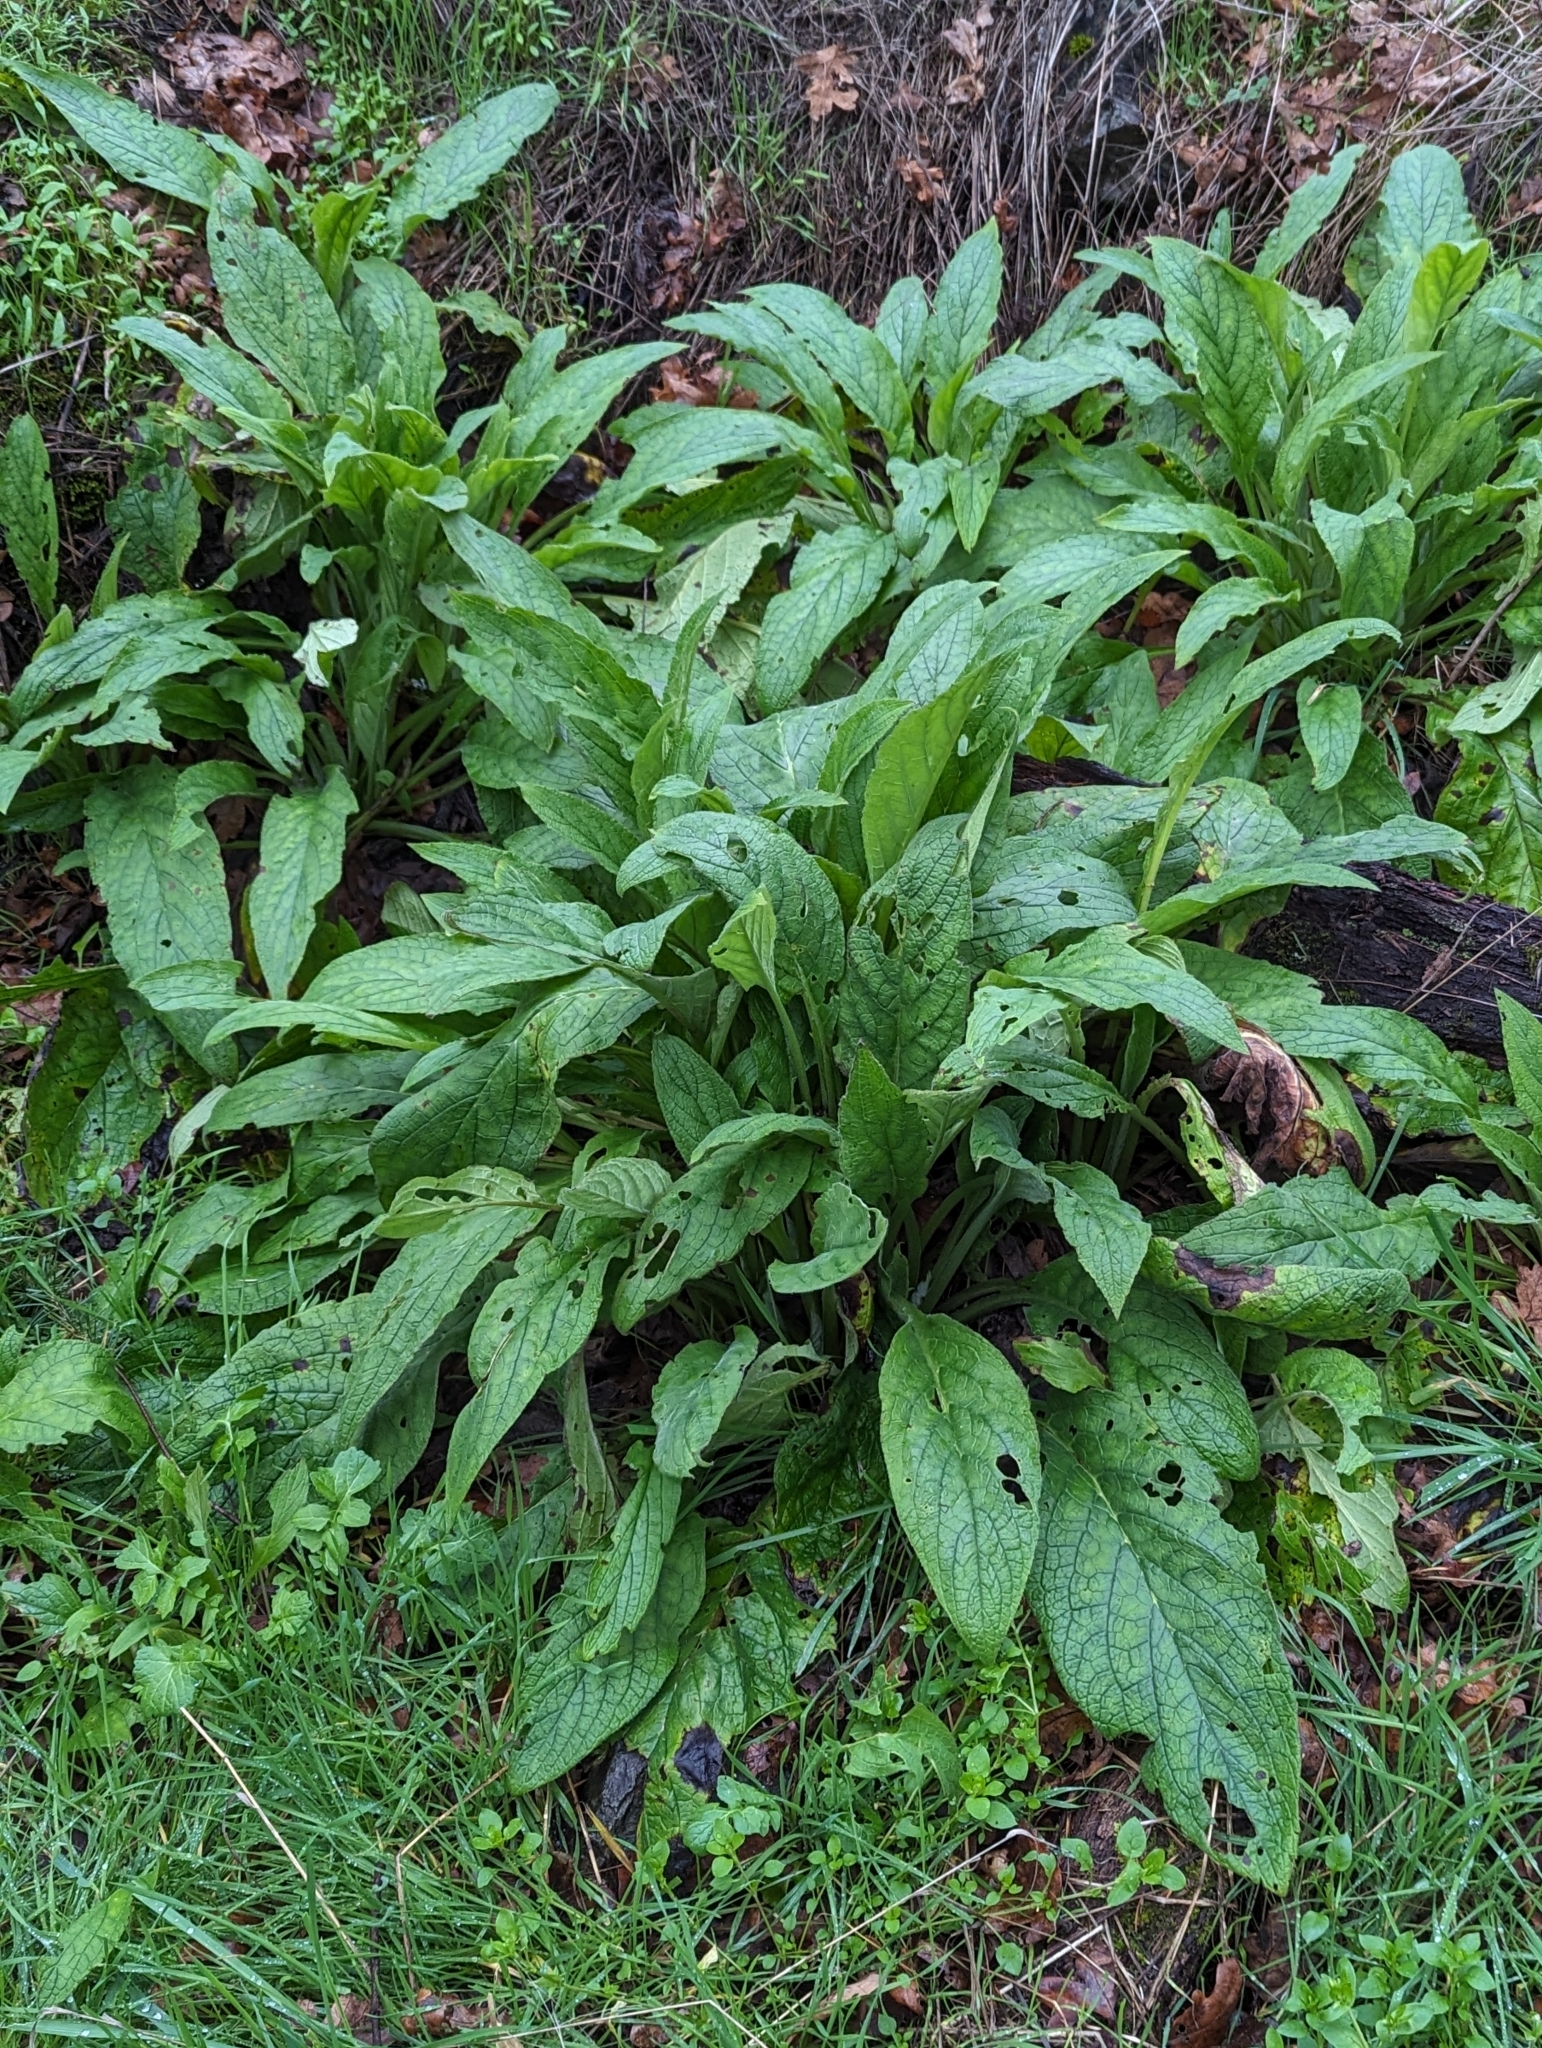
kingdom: Plantae
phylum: Tracheophyta
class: Liliopsida
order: Alismatales
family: Araceae
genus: Lysichiton
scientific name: Lysichiton americanus
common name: American skunk cabbage
